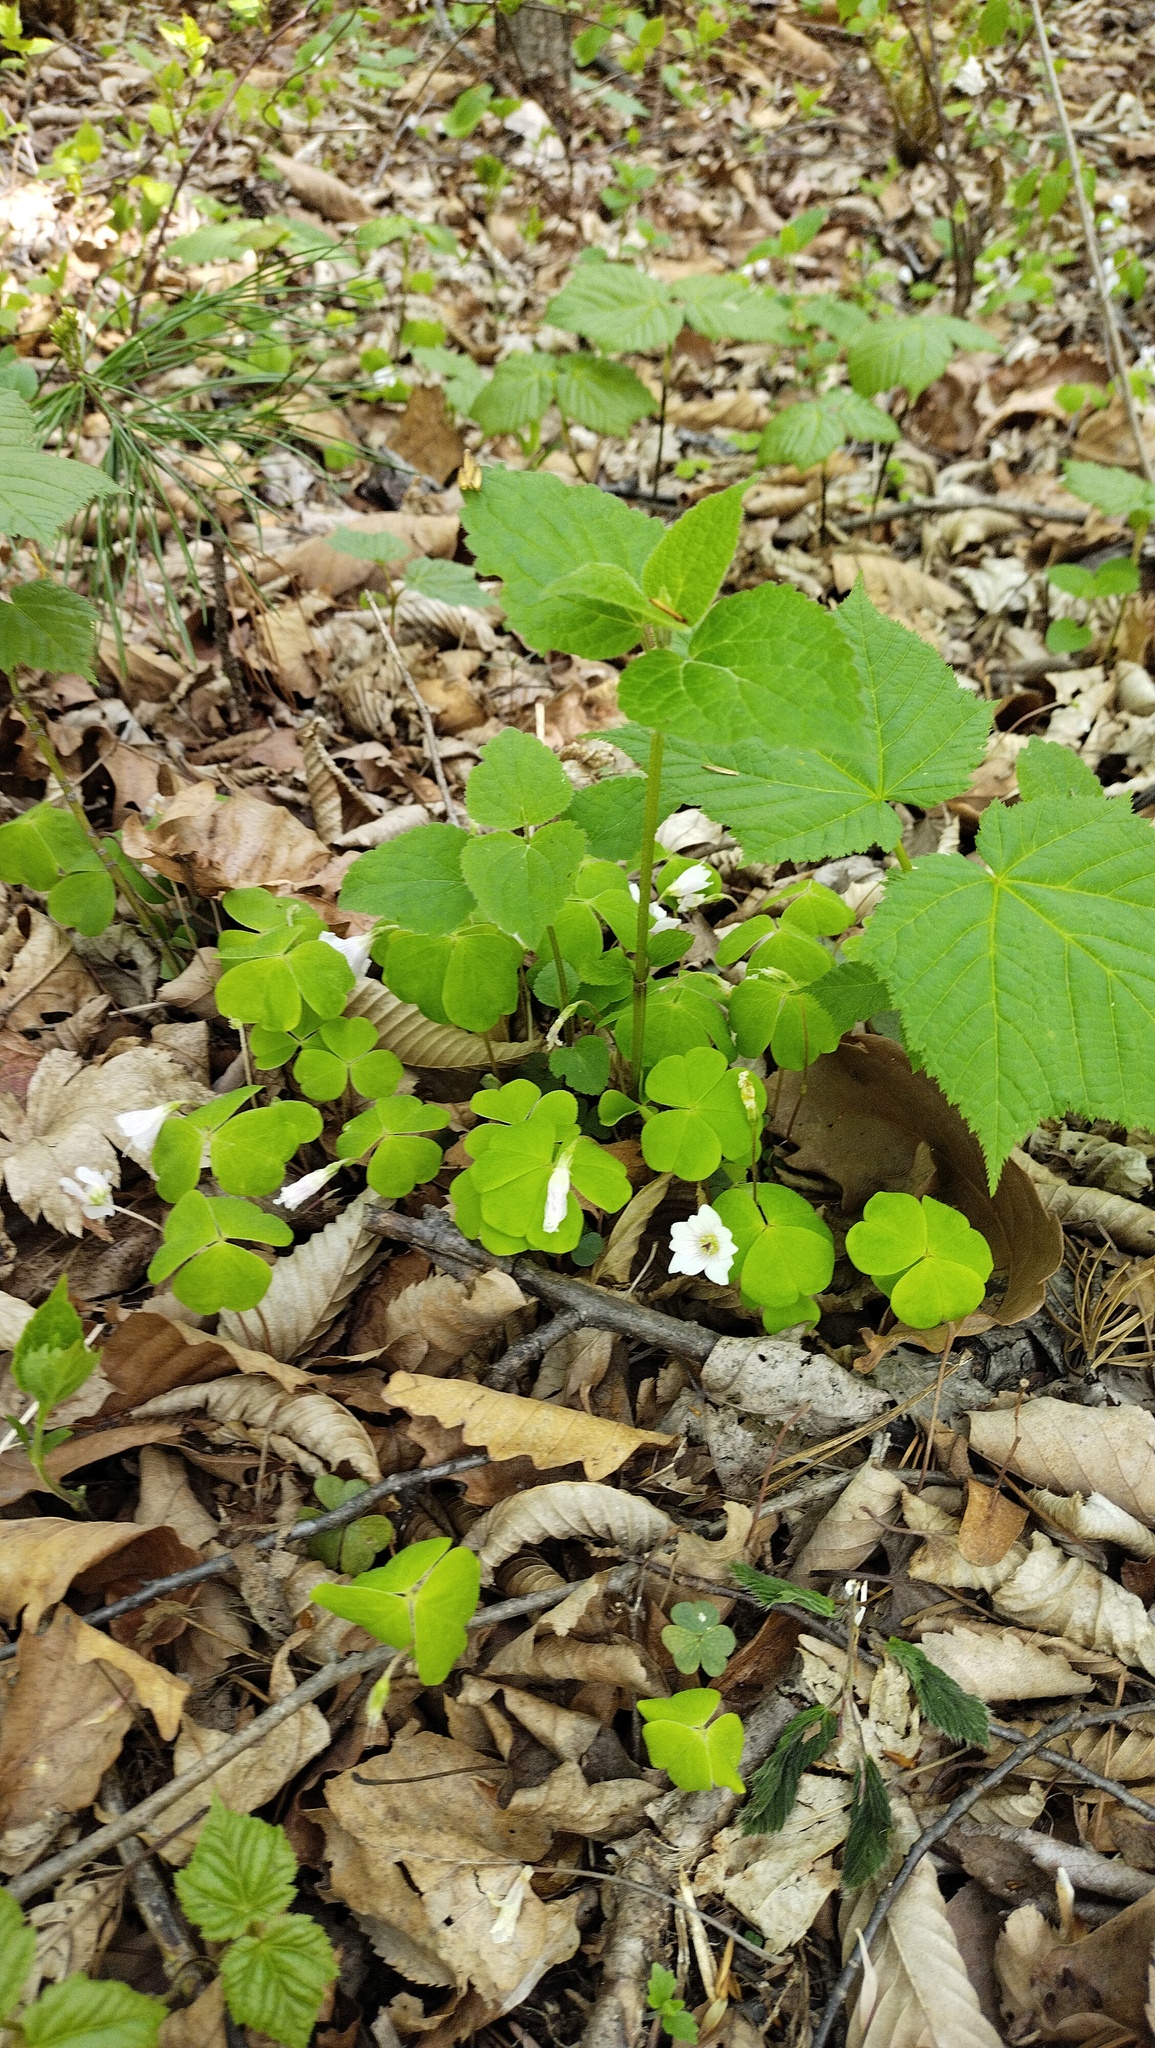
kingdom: Plantae
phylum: Tracheophyta
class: Magnoliopsida
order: Oxalidales
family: Oxalidaceae
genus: Oxalis
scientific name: Oxalis acetosella
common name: Wood-sorrel
